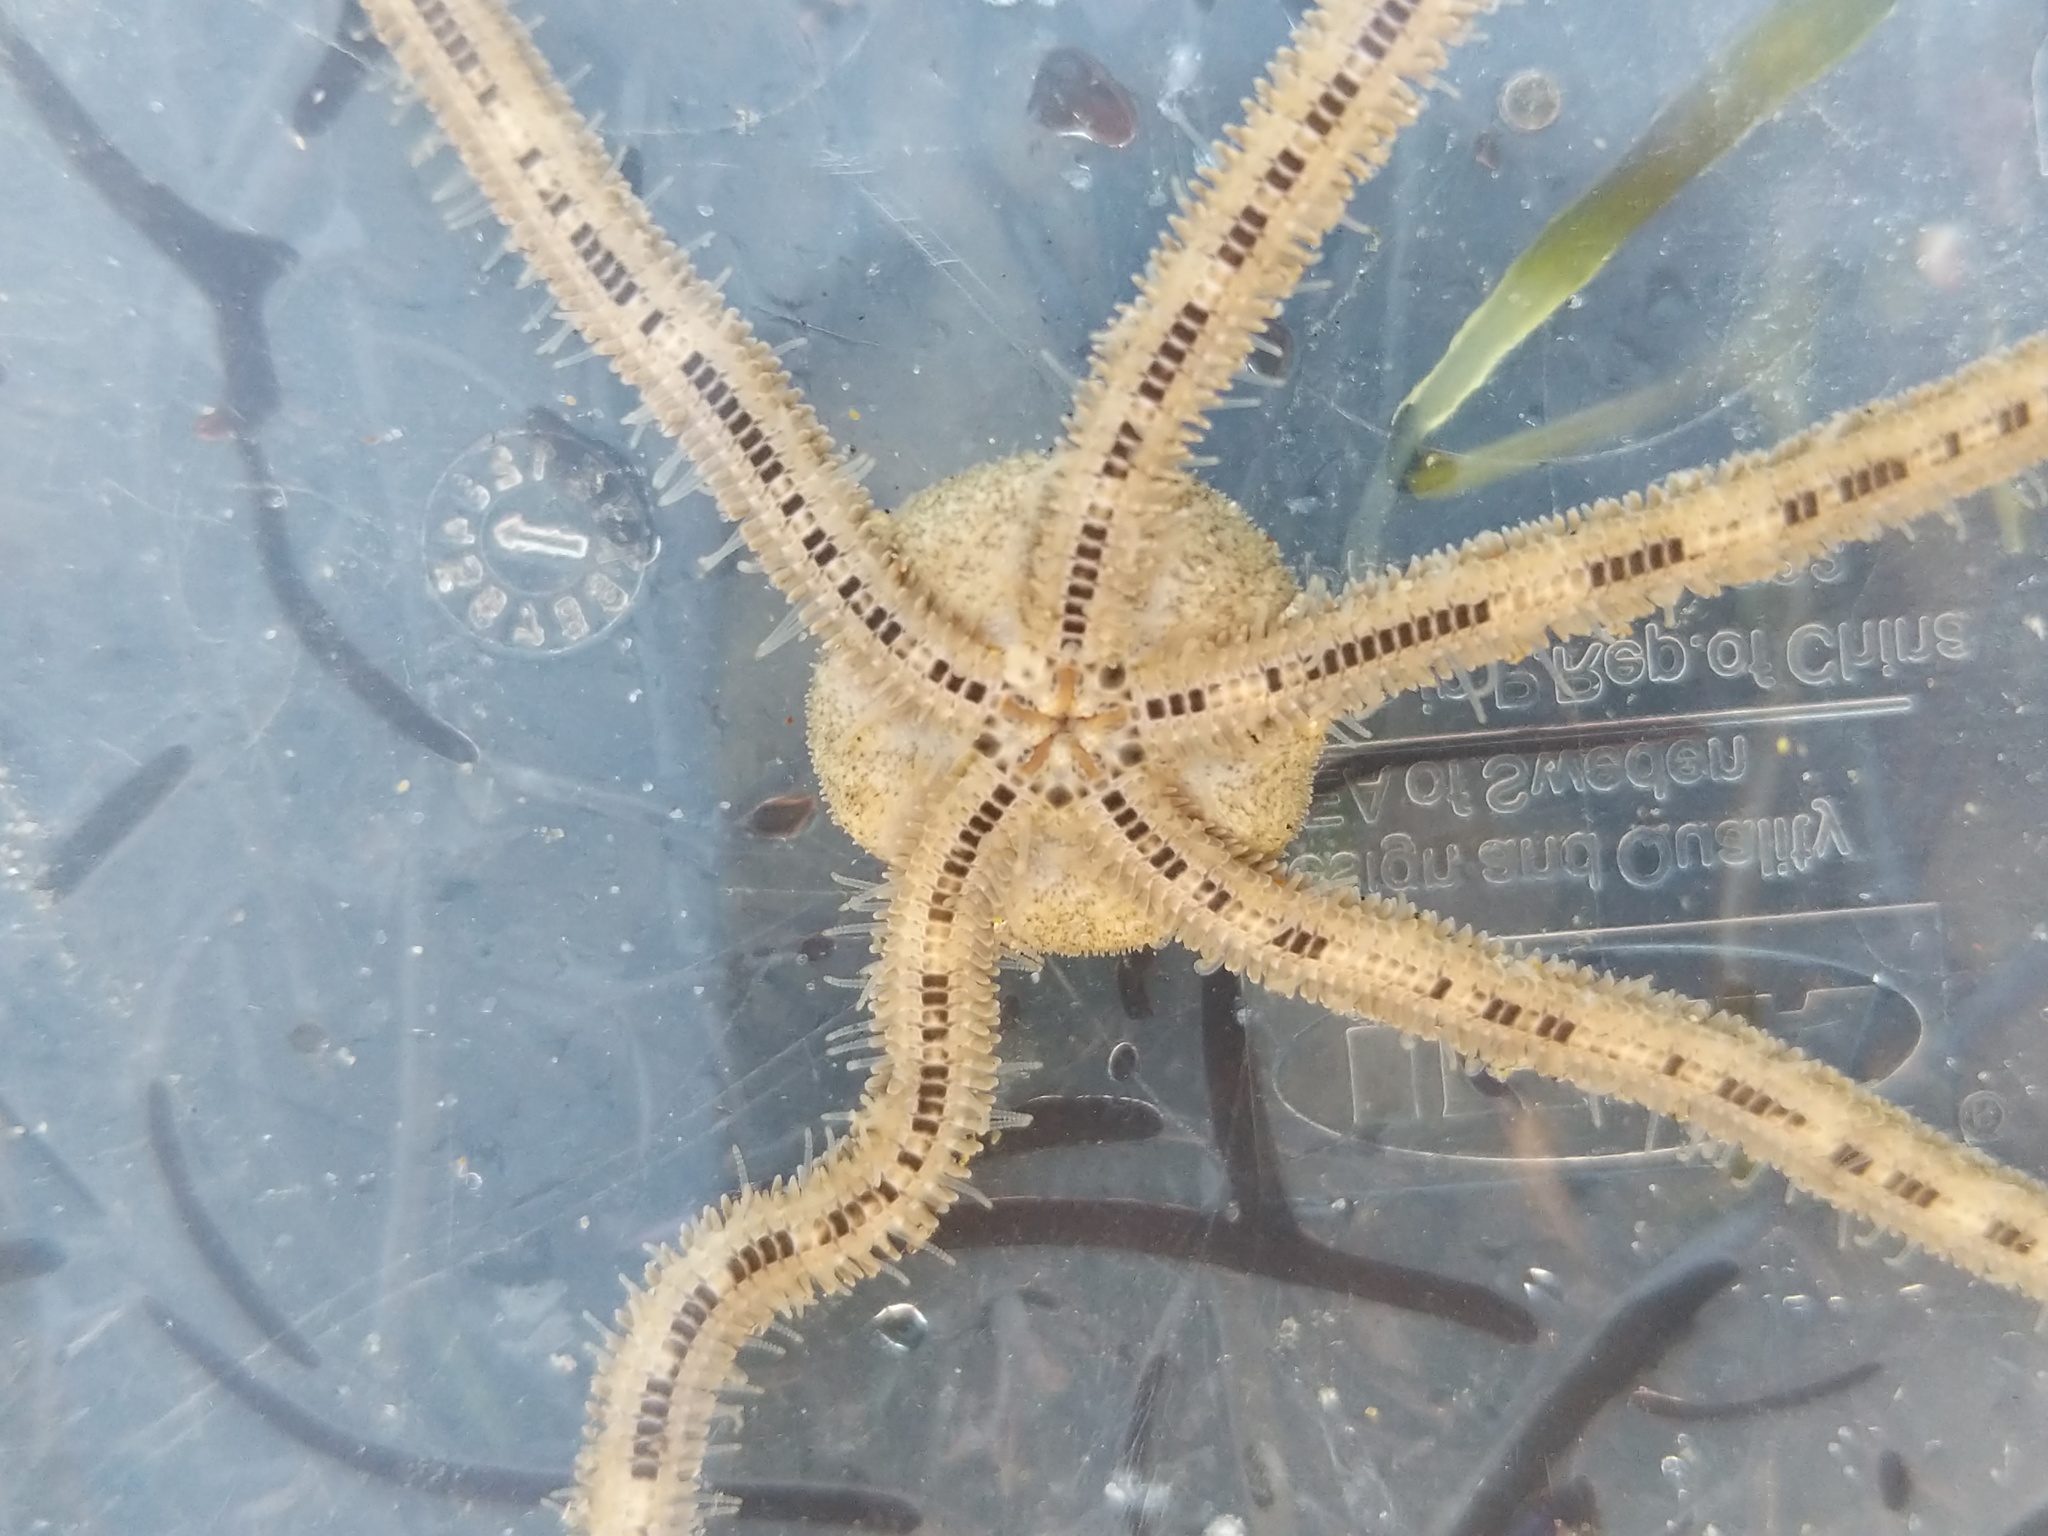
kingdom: Animalia
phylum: Echinodermata
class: Ophiuroidea
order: Amphilepidida
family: Amphiuridae
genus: Amphiodia
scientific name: Amphiodia occidentalis
